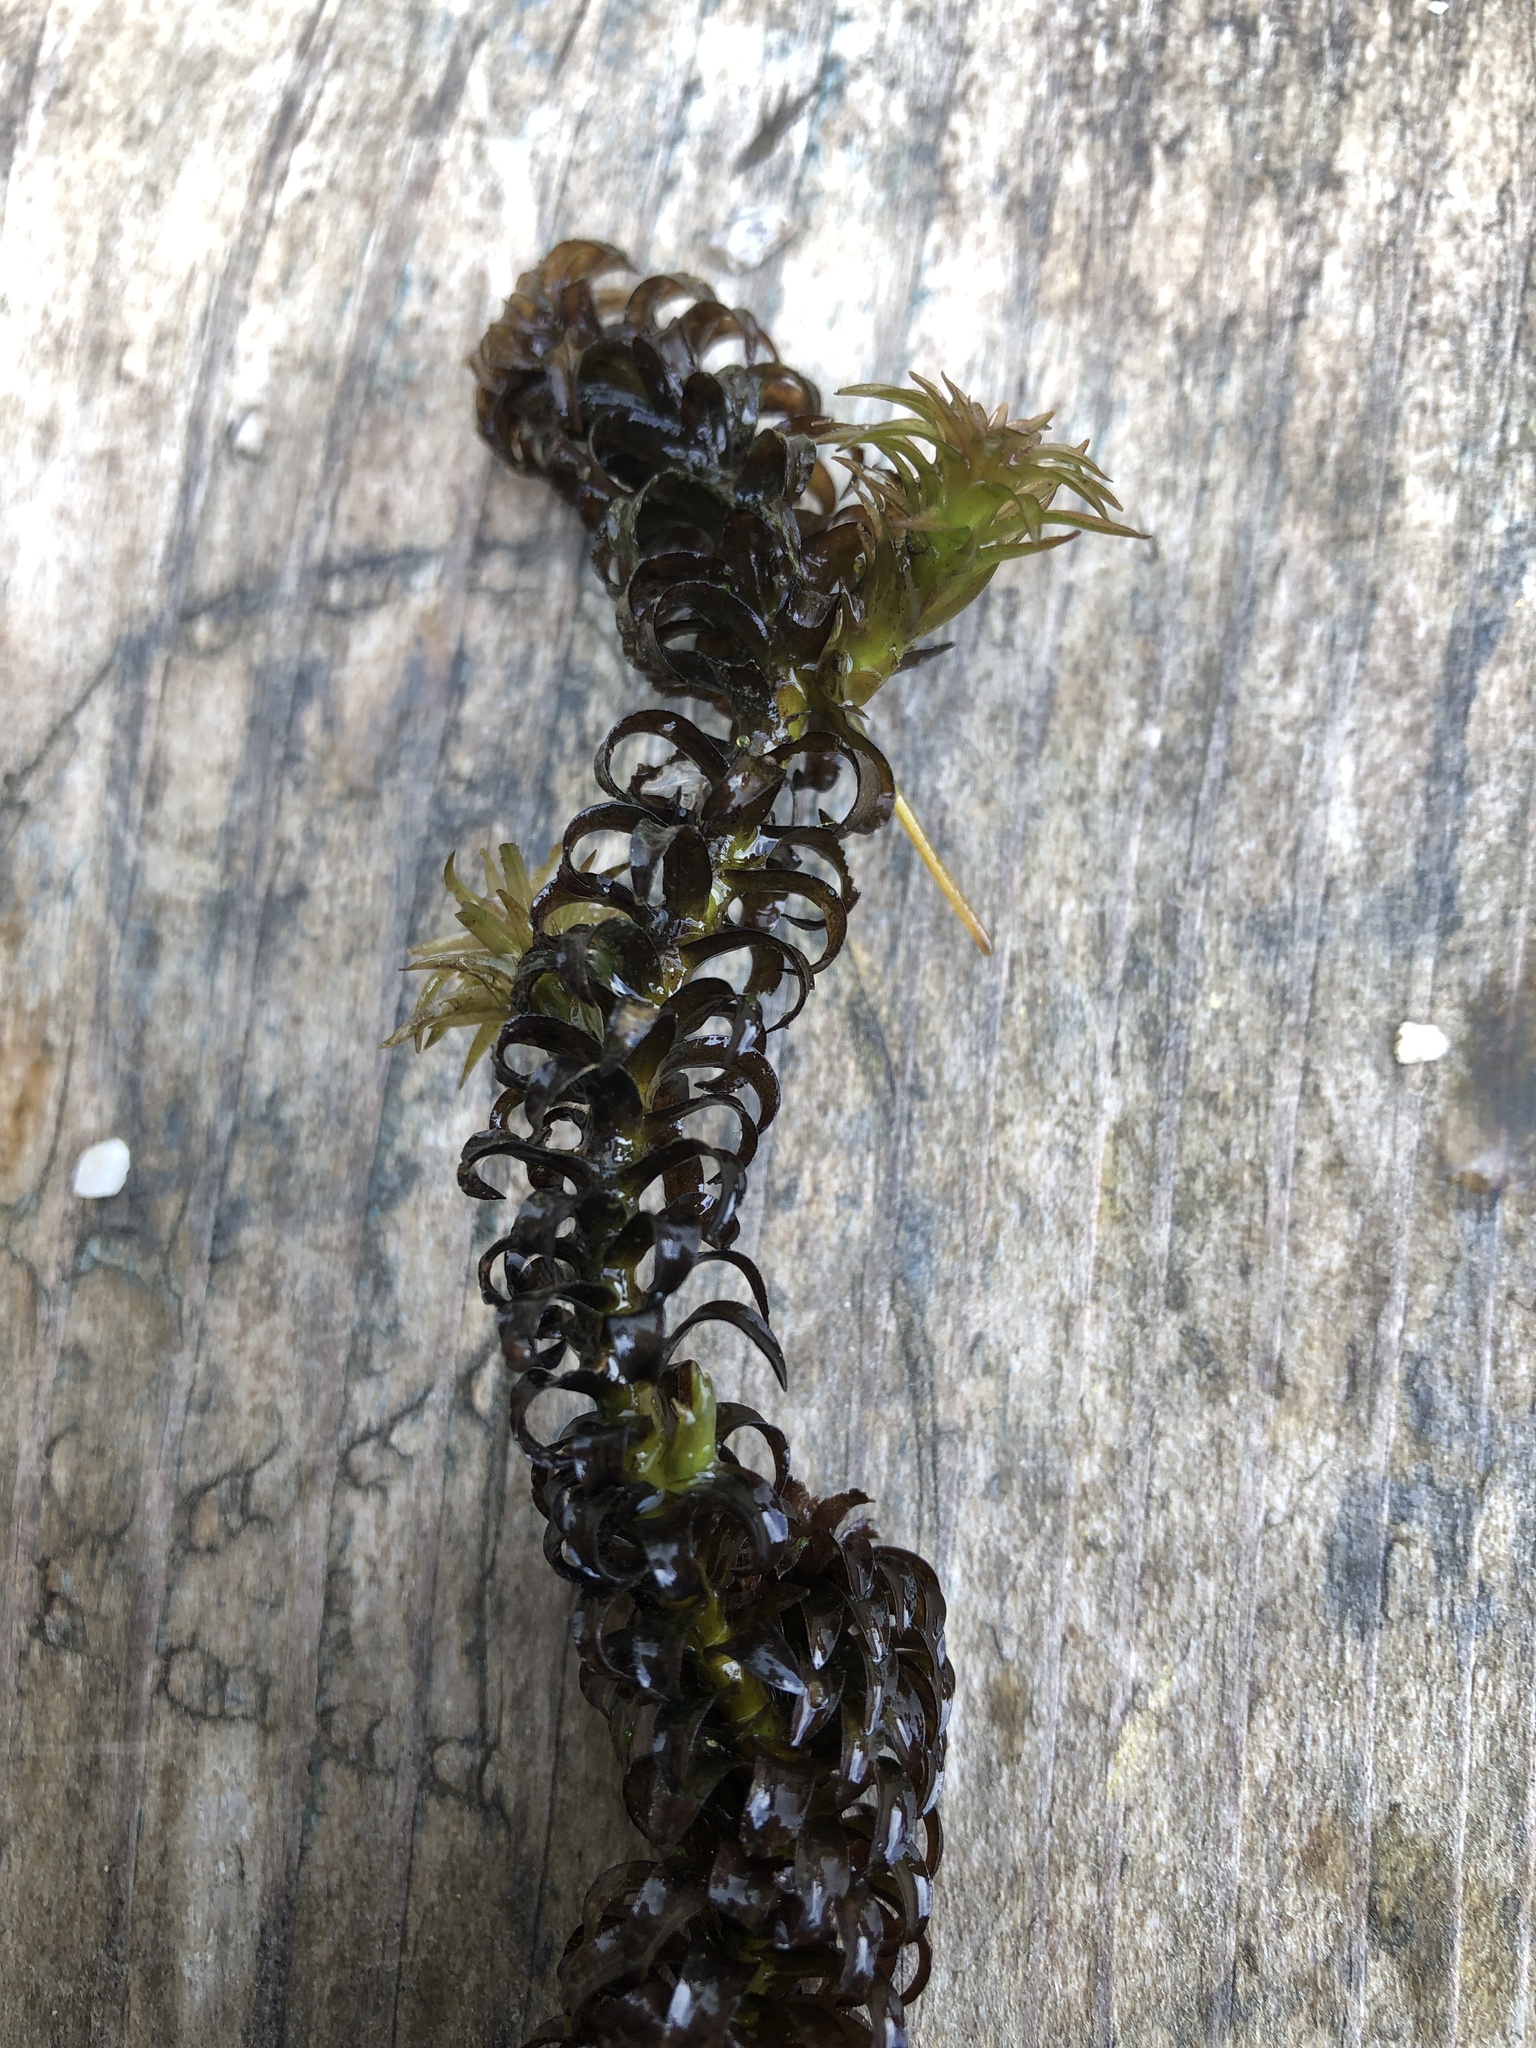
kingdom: Plantae
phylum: Tracheophyta
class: Liliopsida
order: Alismatales
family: Hydrocharitaceae
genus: Lagarosiphon
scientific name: Lagarosiphon major
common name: Curly waterweed
